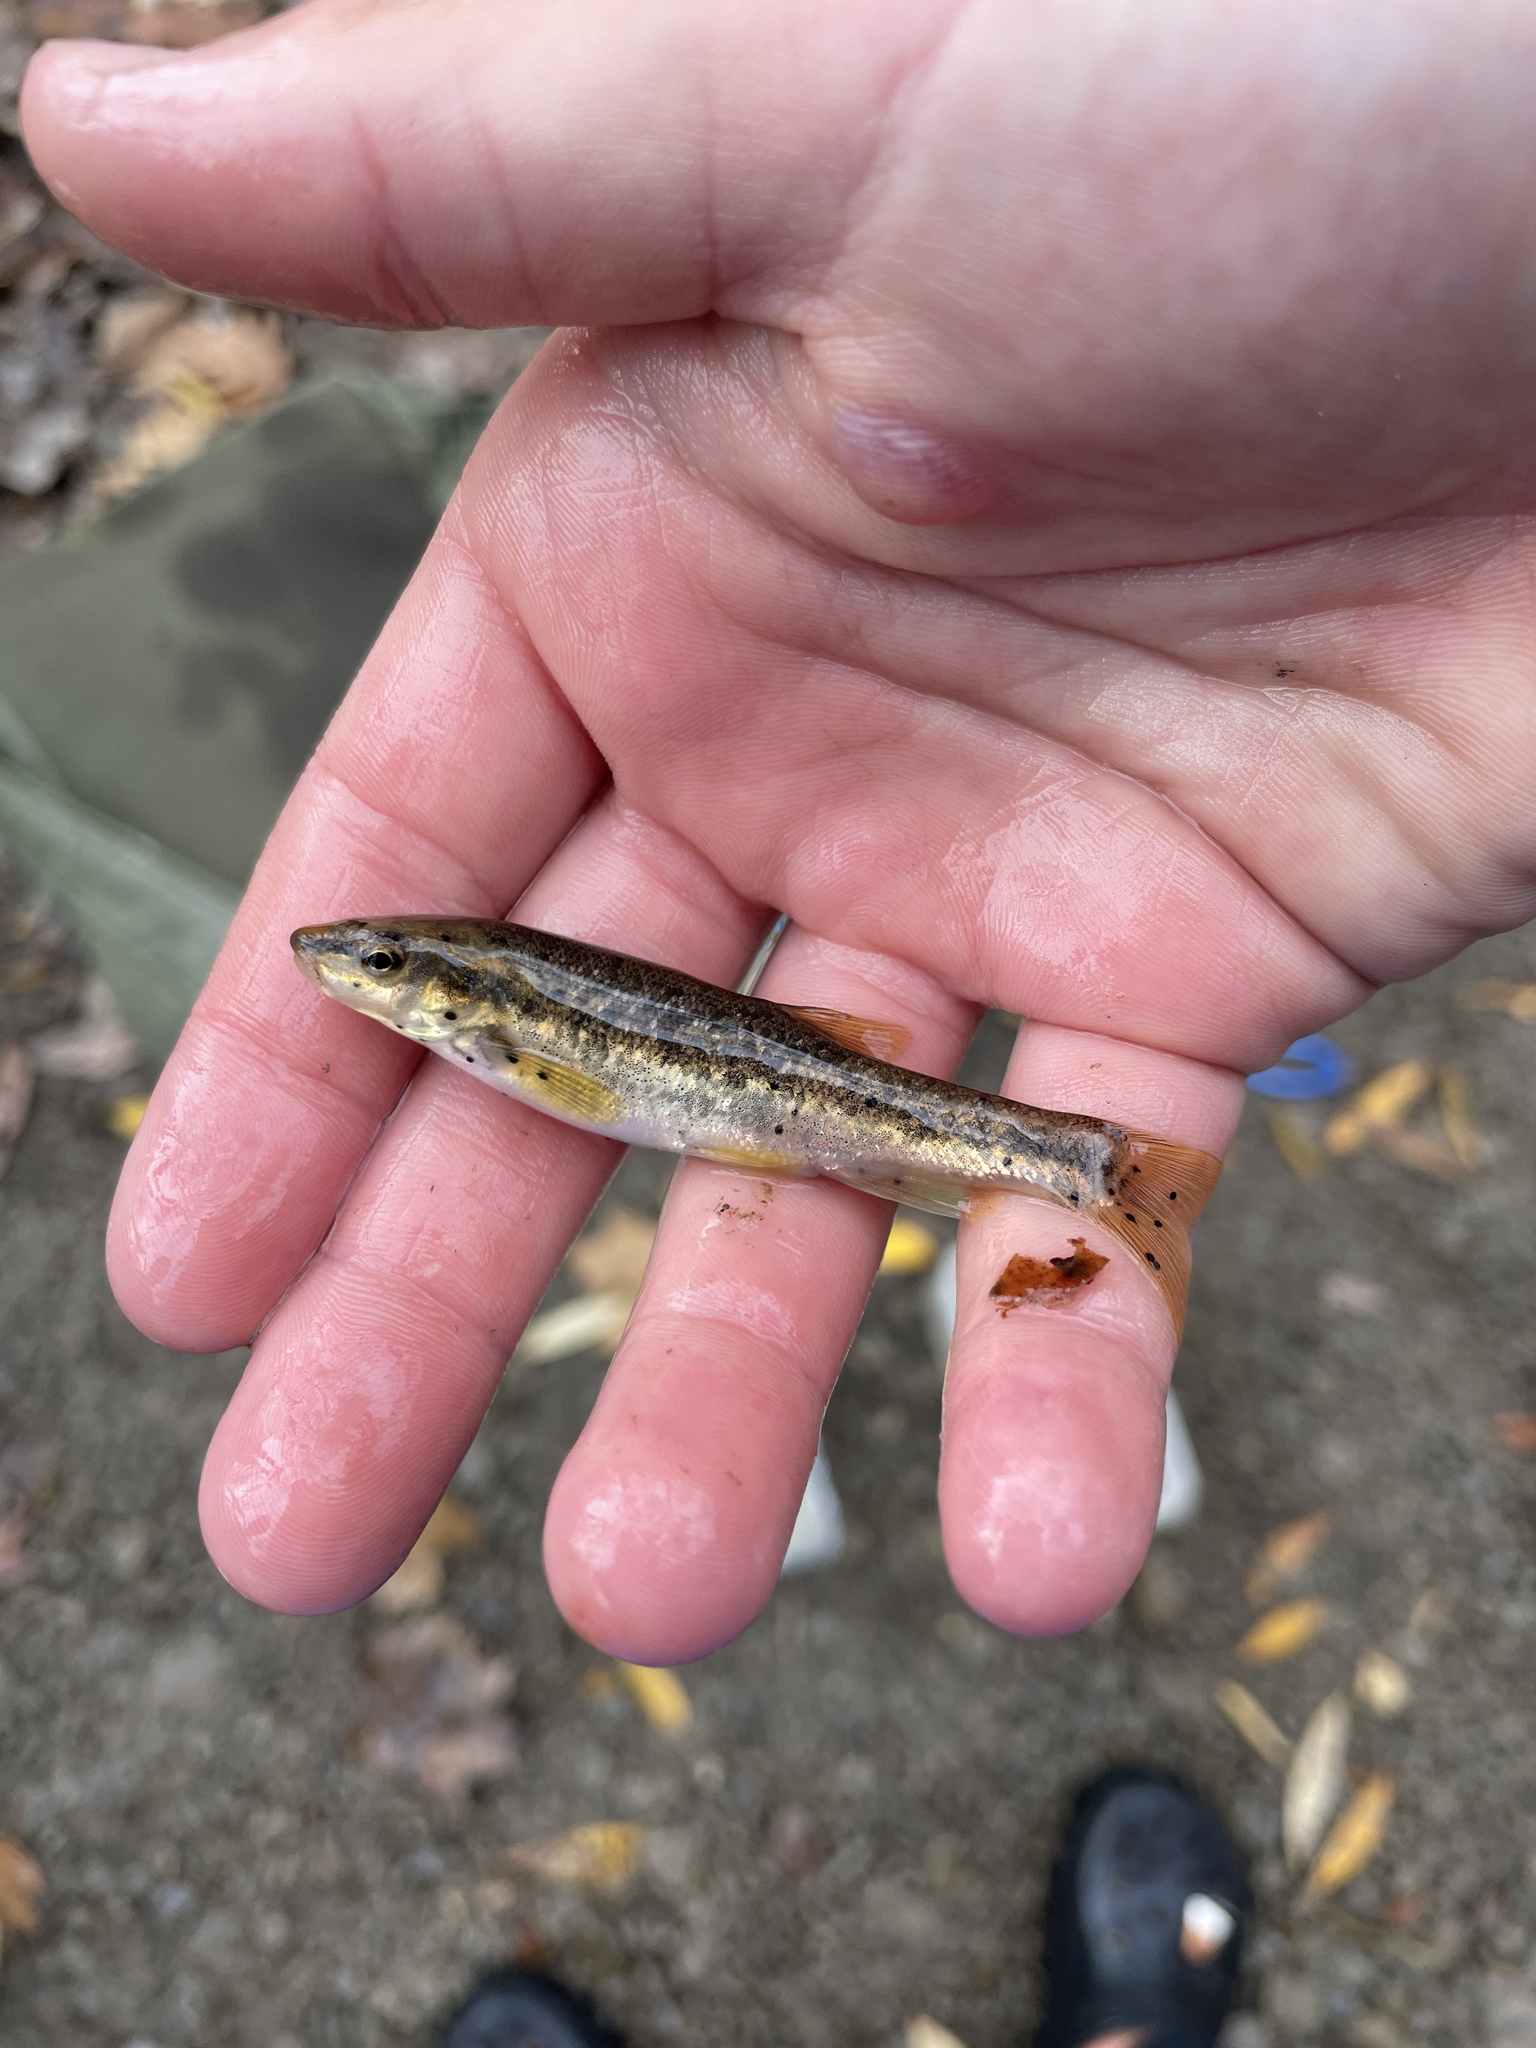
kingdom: Animalia
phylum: Chordata
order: Cypriniformes
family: Cyprinidae
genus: Rhinichthys
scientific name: Rhinichthys obtusus
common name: Western blacknose dace
